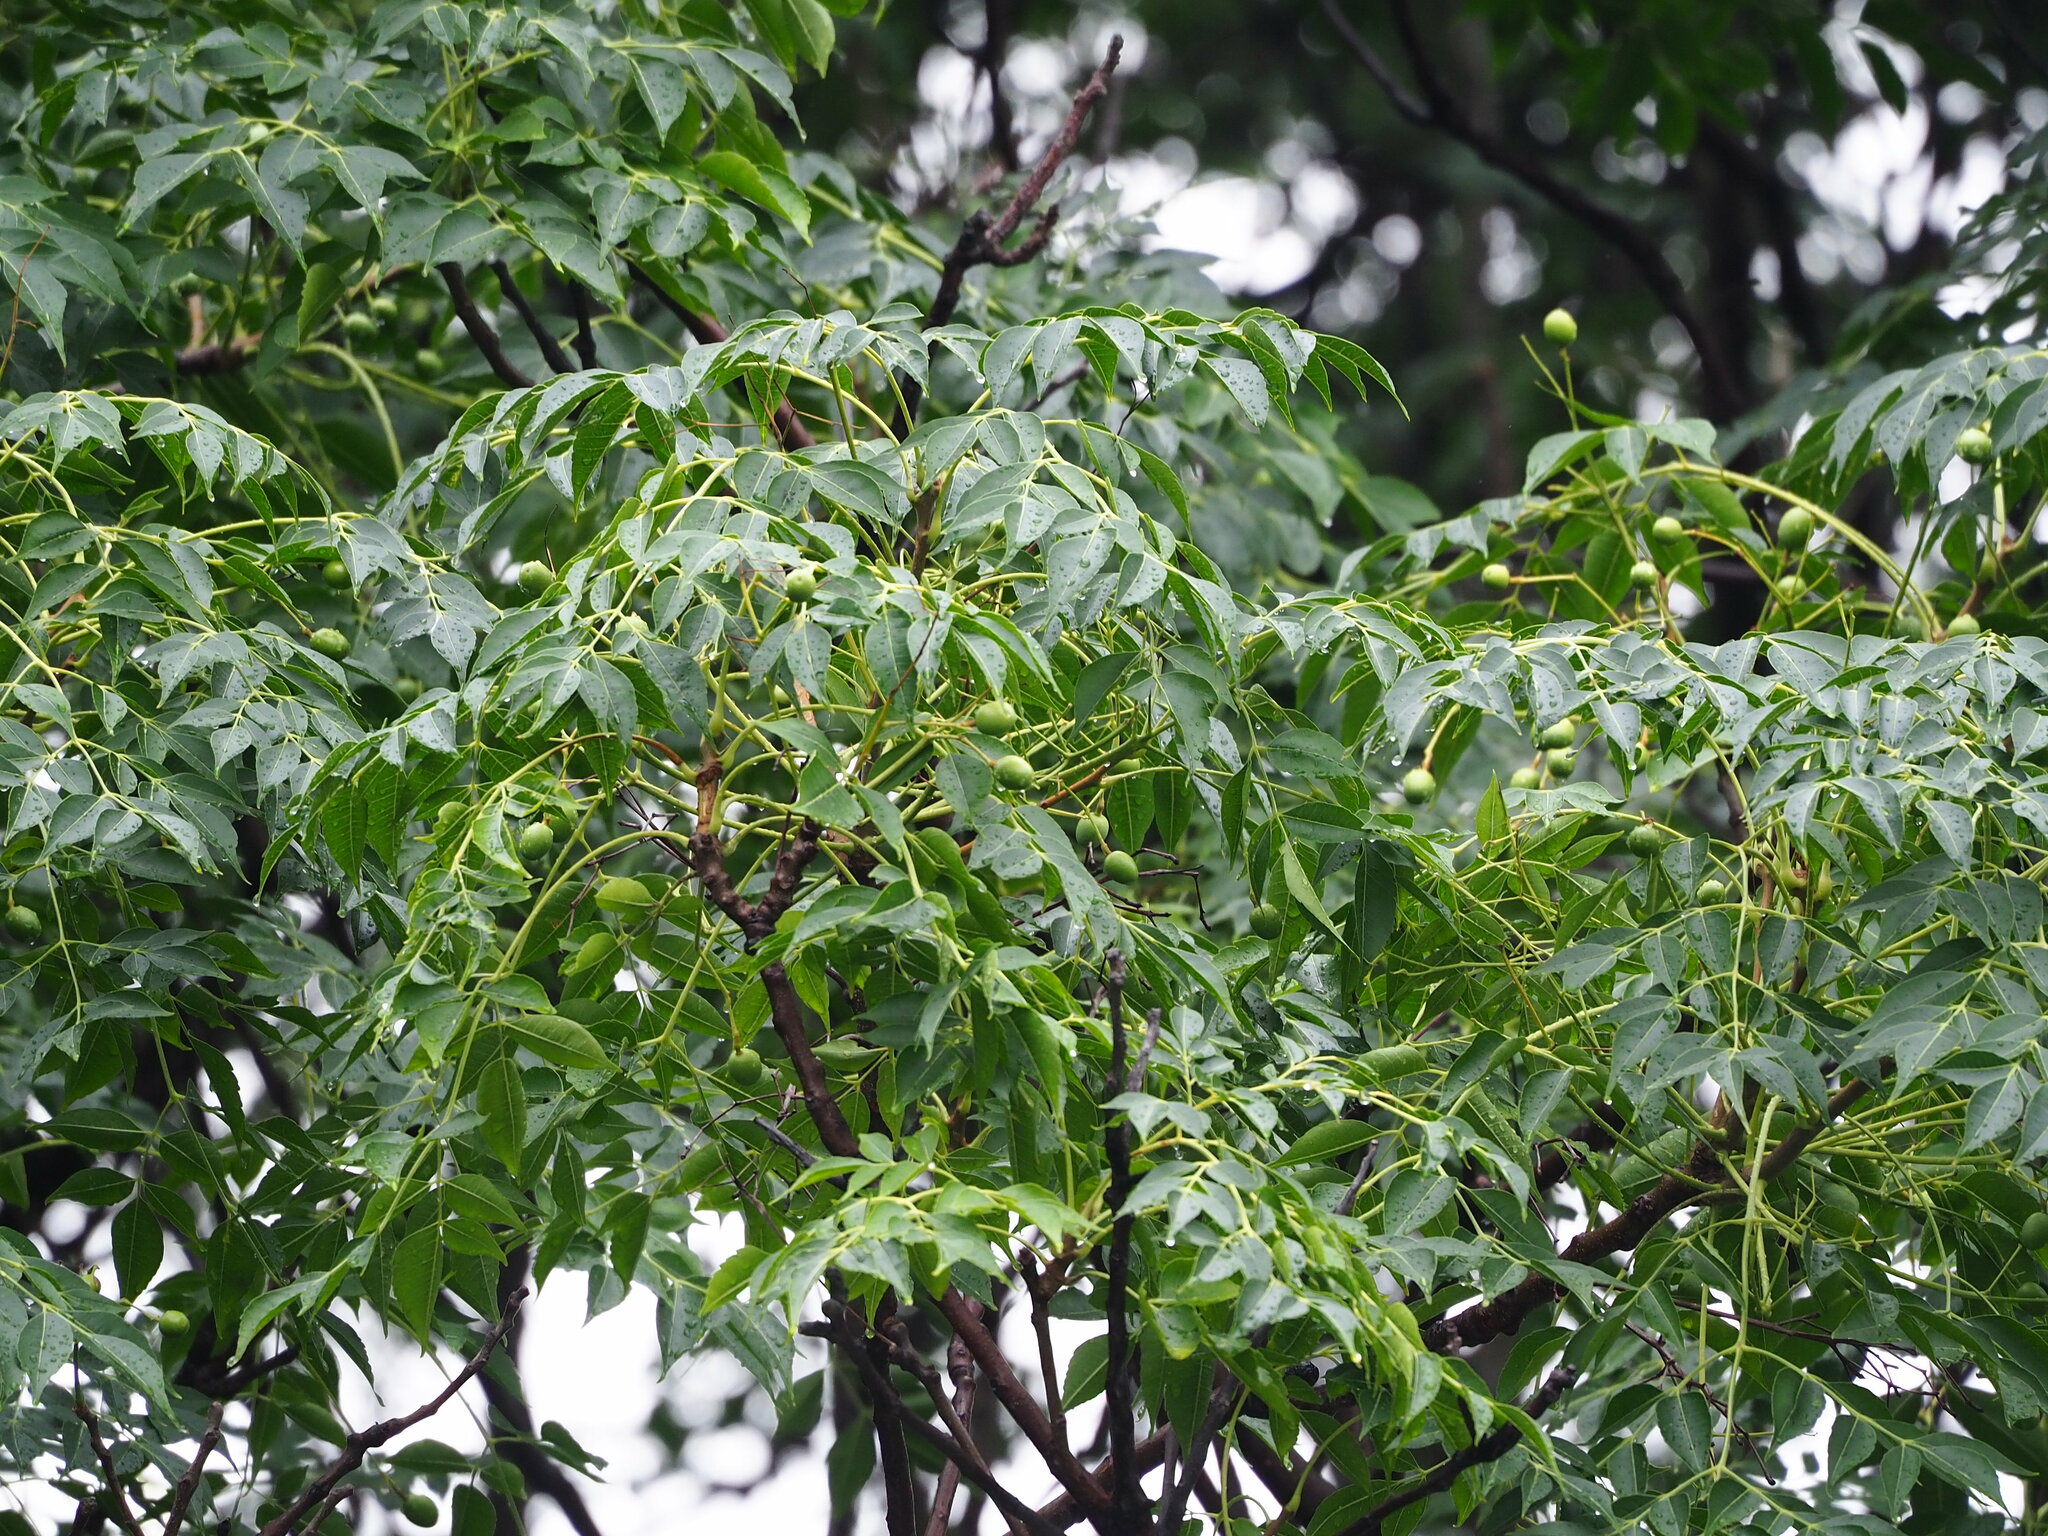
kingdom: Plantae
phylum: Tracheophyta
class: Magnoliopsida
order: Sapindales
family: Meliaceae
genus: Melia
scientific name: Melia azedarach
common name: Chinaberrytree
